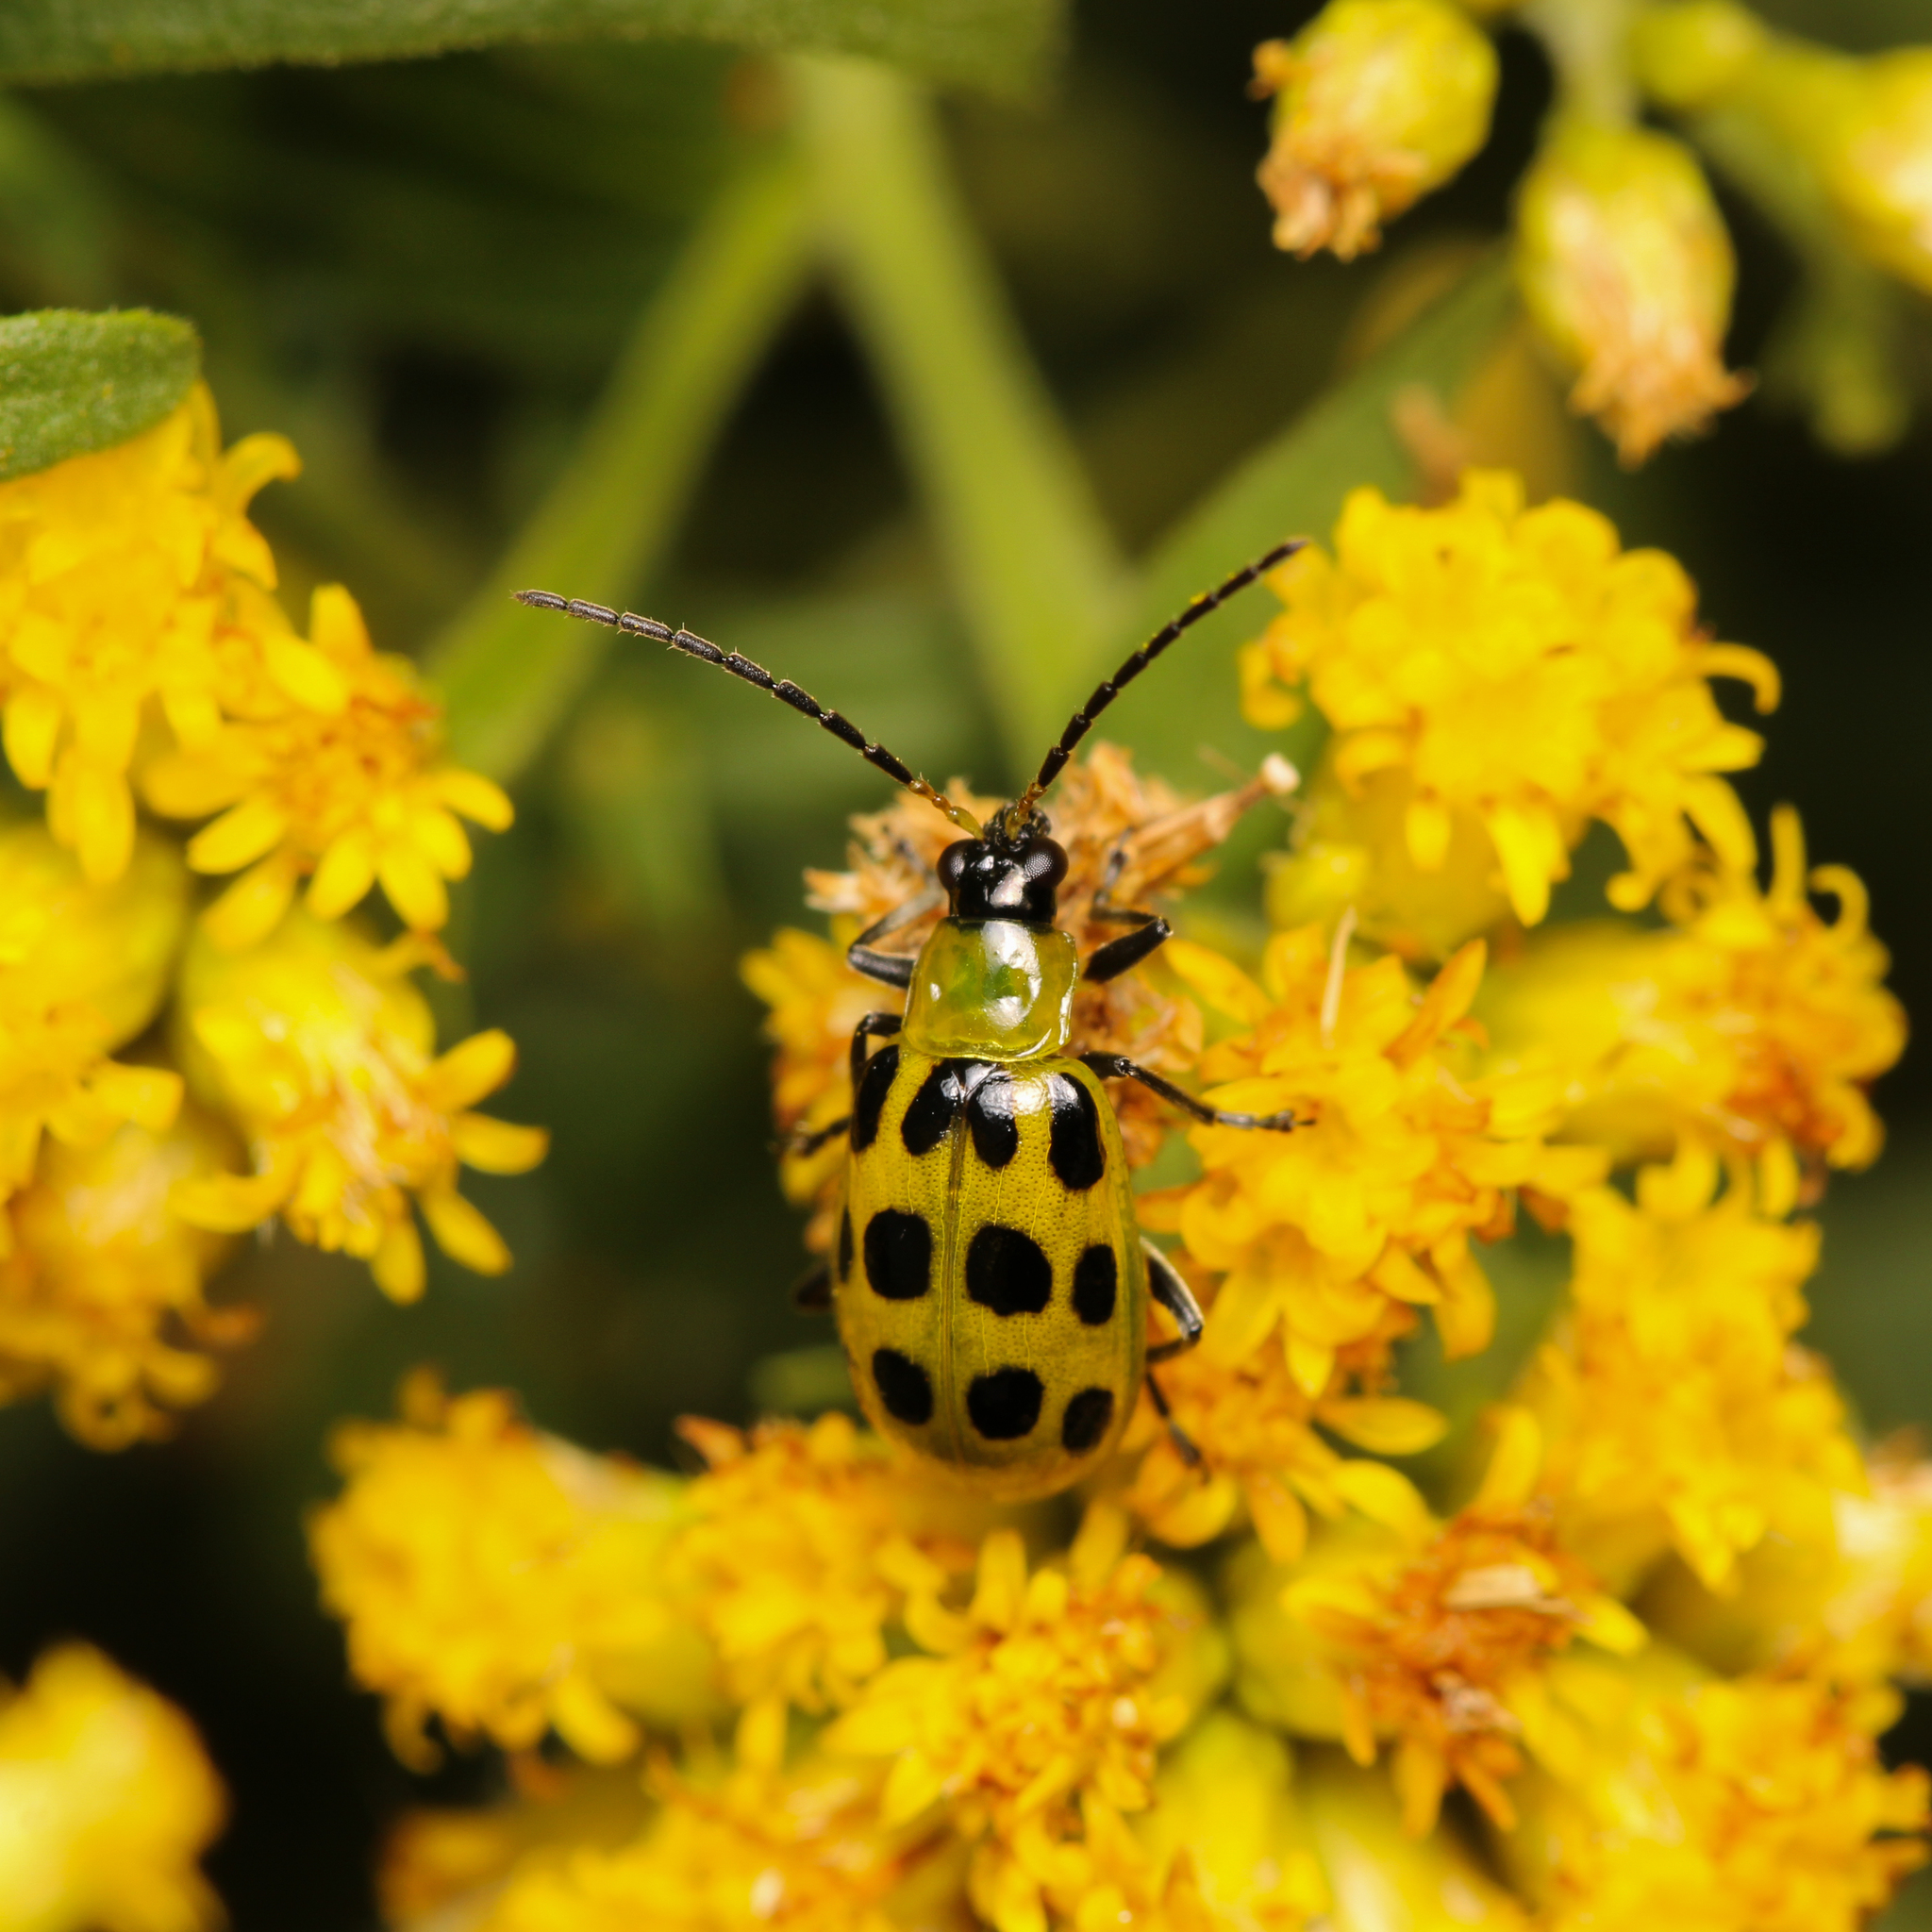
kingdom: Animalia
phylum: Arthropoda
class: Insecta
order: Coleoptera
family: Chrysomelidae
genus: Diabrotica
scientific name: Diabrotica undecimpunctata
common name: Spotted cucumber beetle
